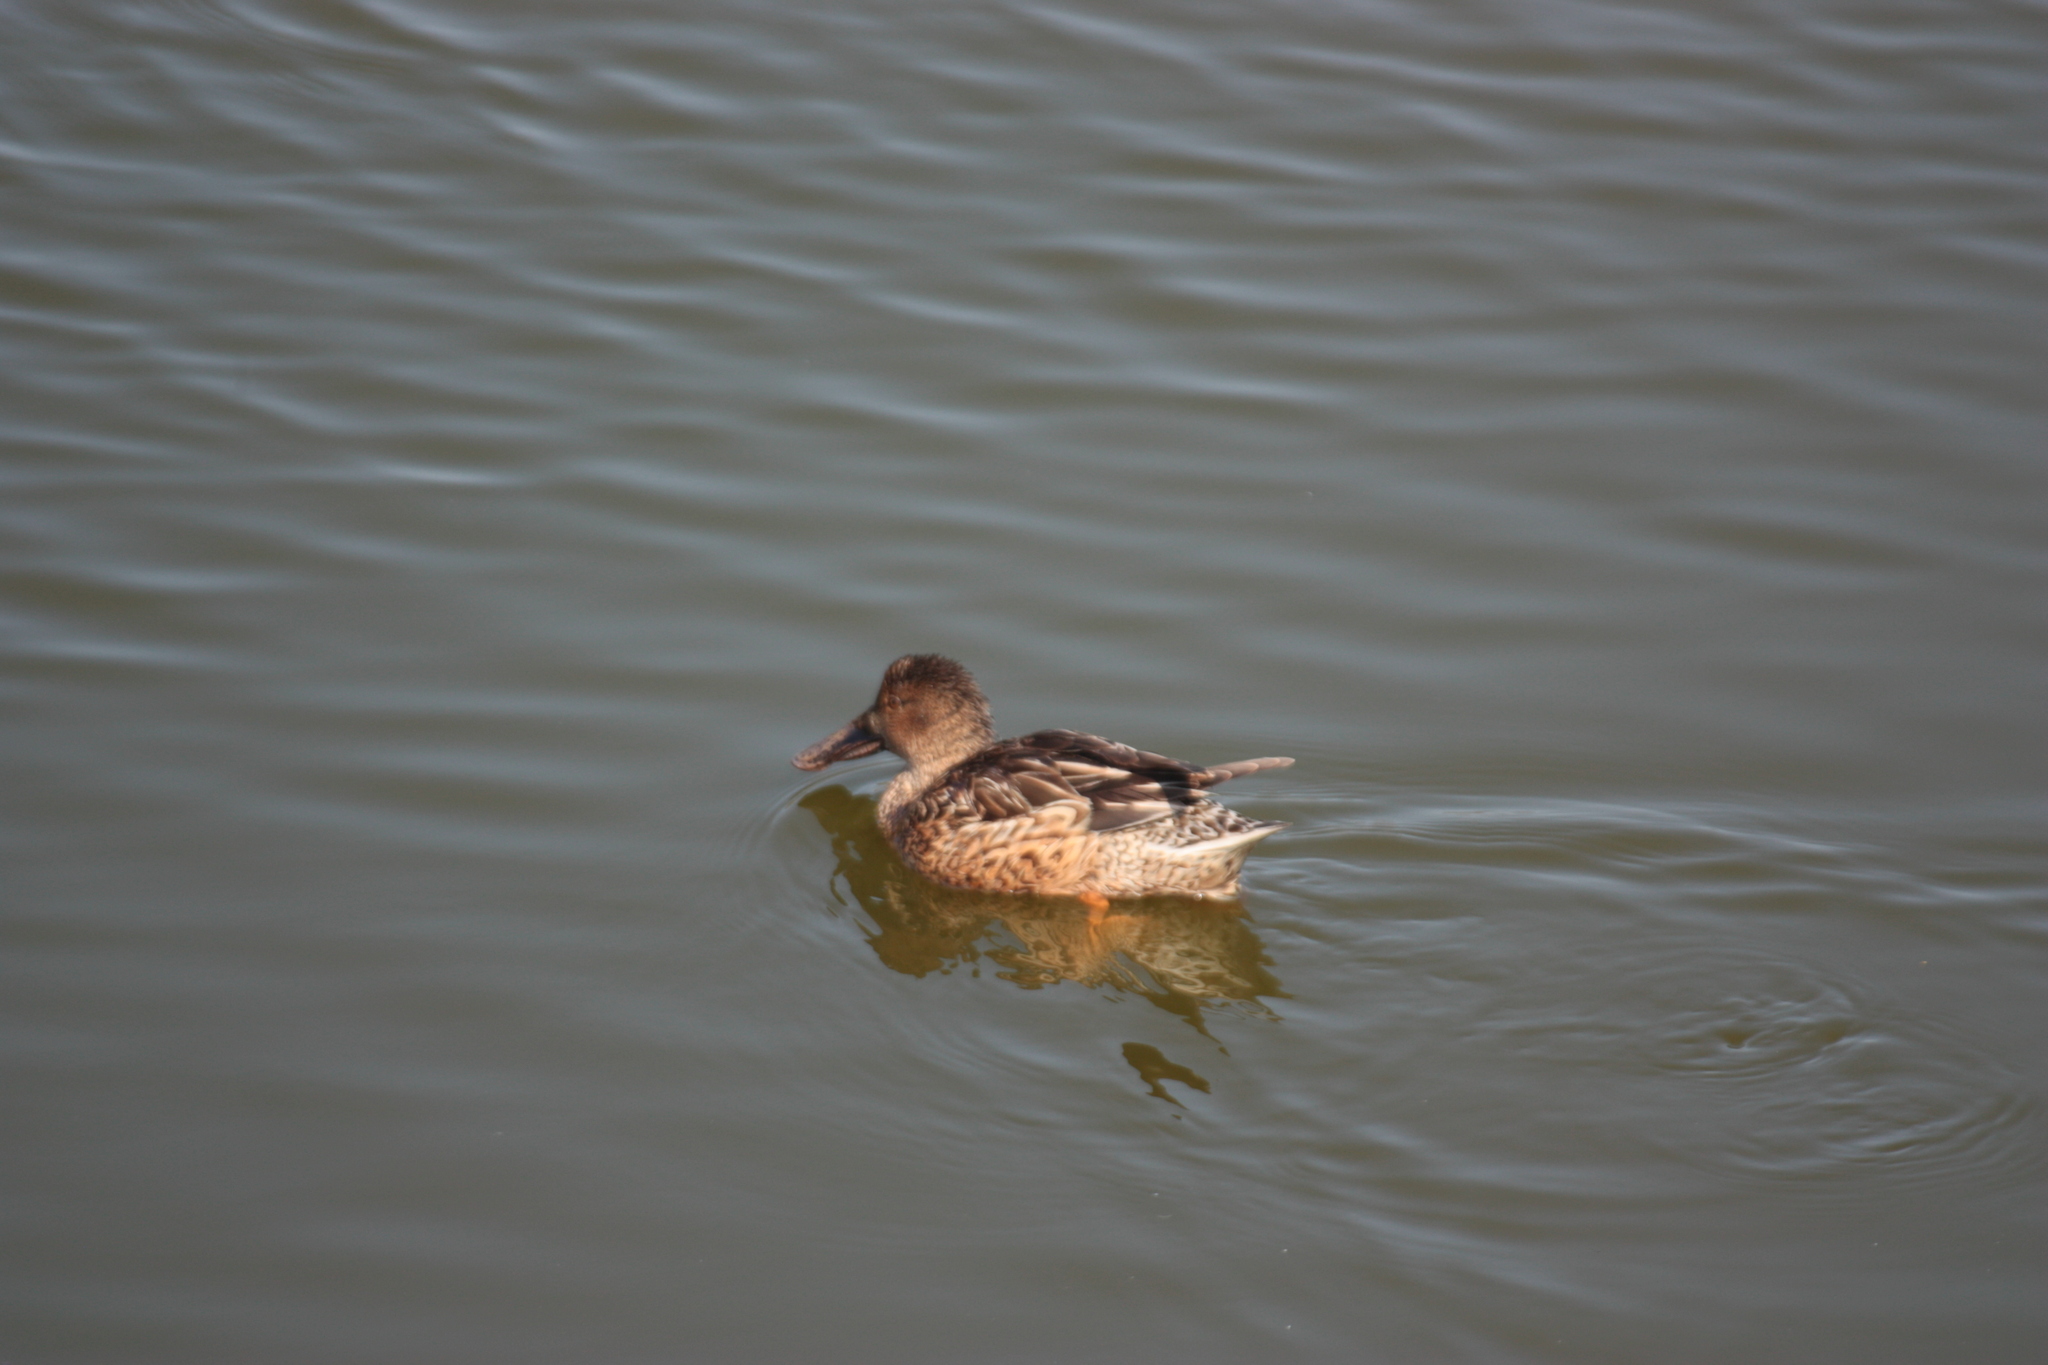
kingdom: Animalia
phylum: Chordata
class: Aves
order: Anseriformes
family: Anatidae
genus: Spatula
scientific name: Spatula clypeata
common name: Northern shoveler
